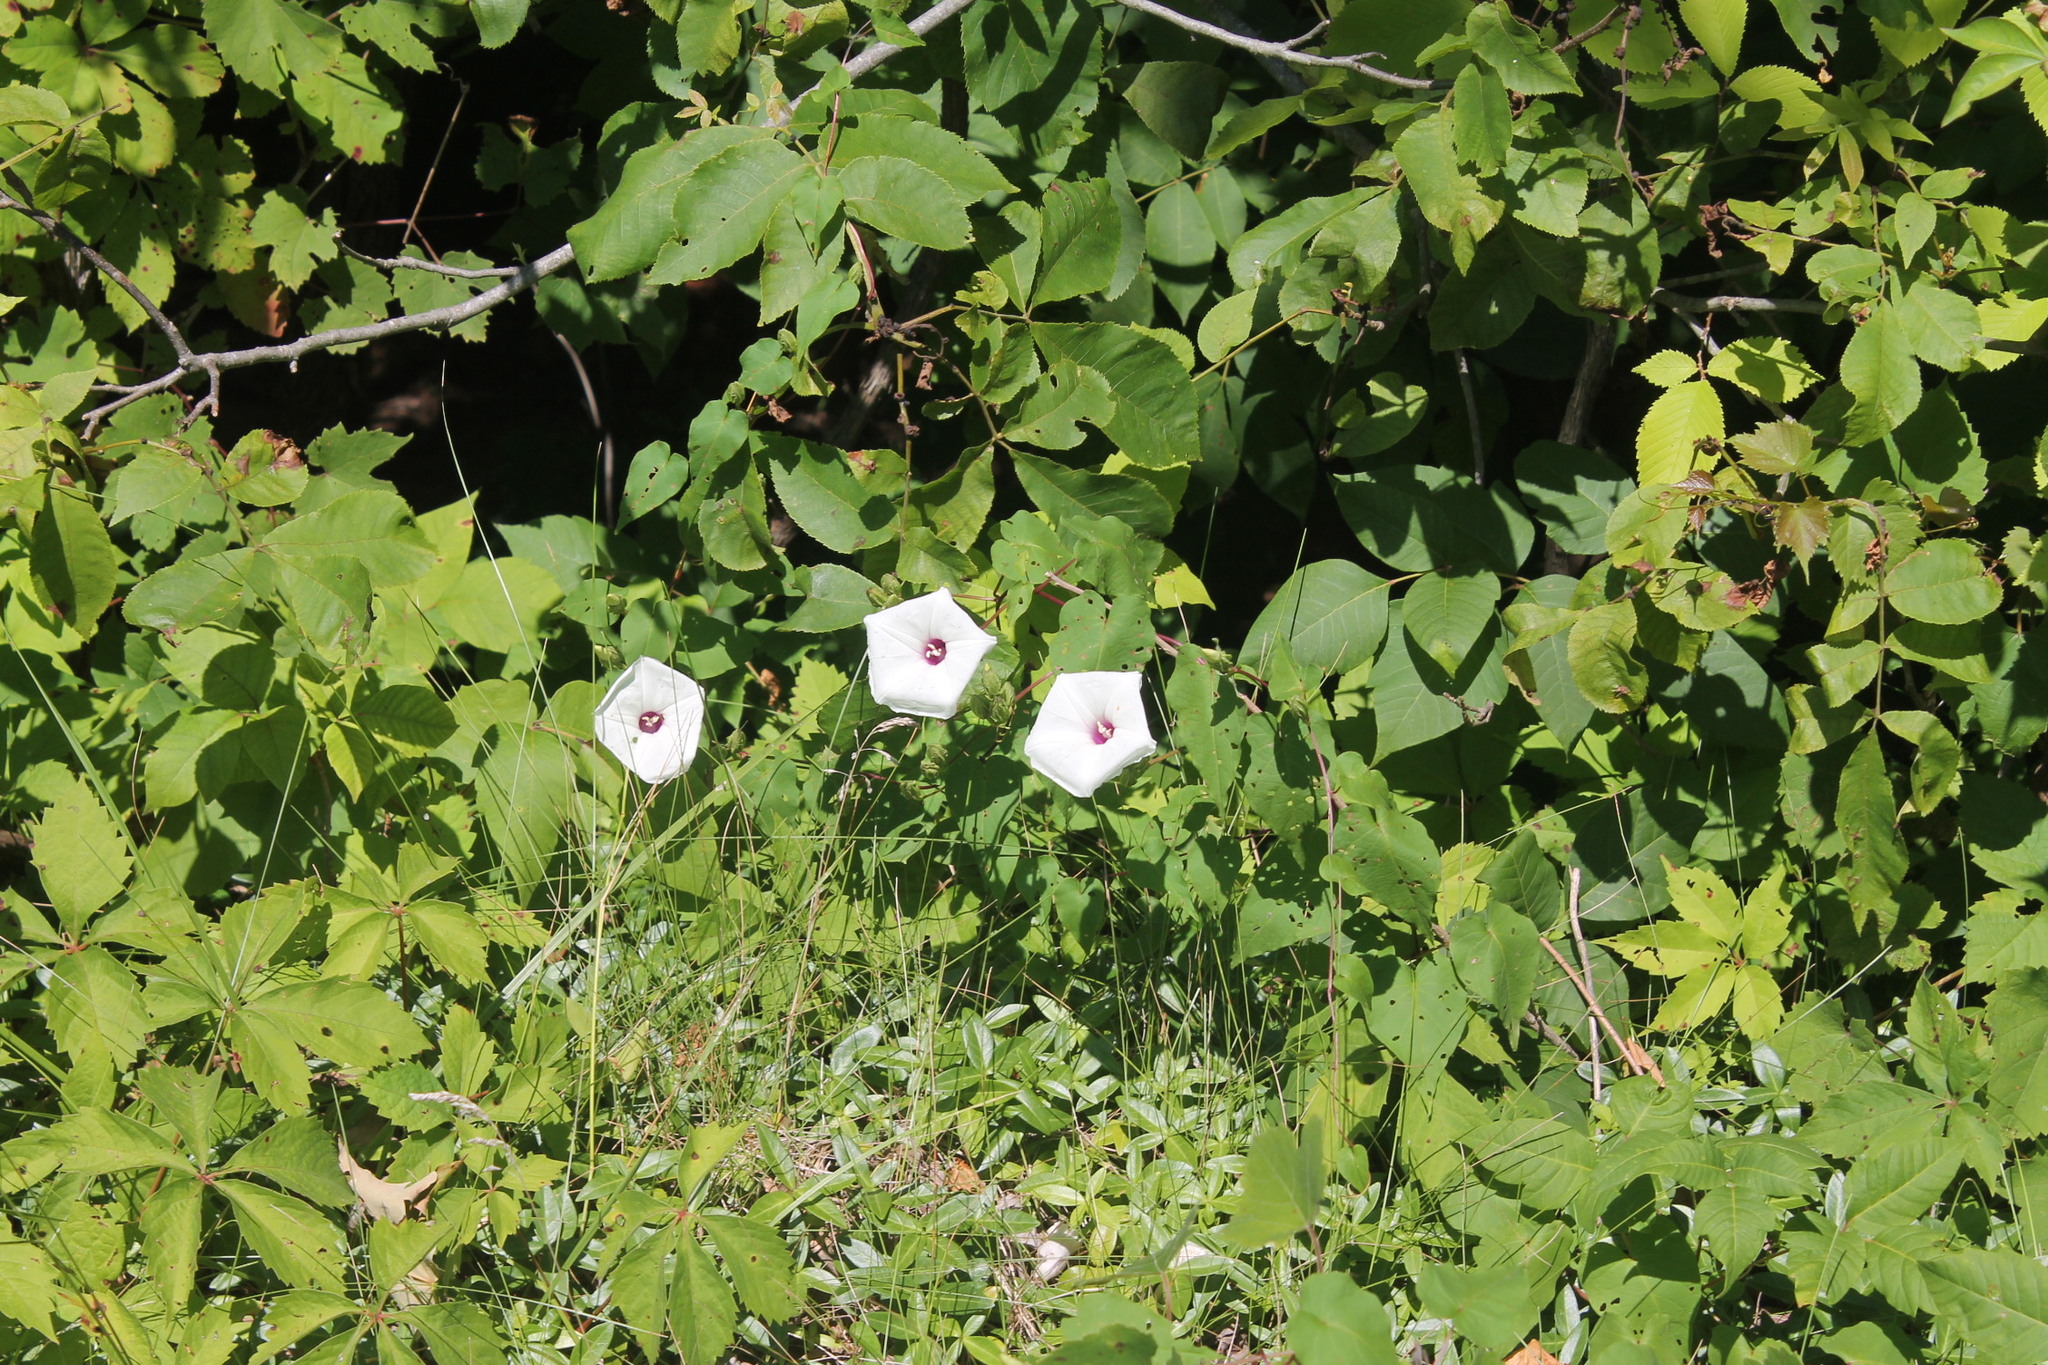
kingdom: Plantae
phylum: Tracheophyta
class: Magnoliopsida
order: Solanales
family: Convolvulaceae
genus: Ipomoea
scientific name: Ipomoea pandurata
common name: Man-of-the-earth
